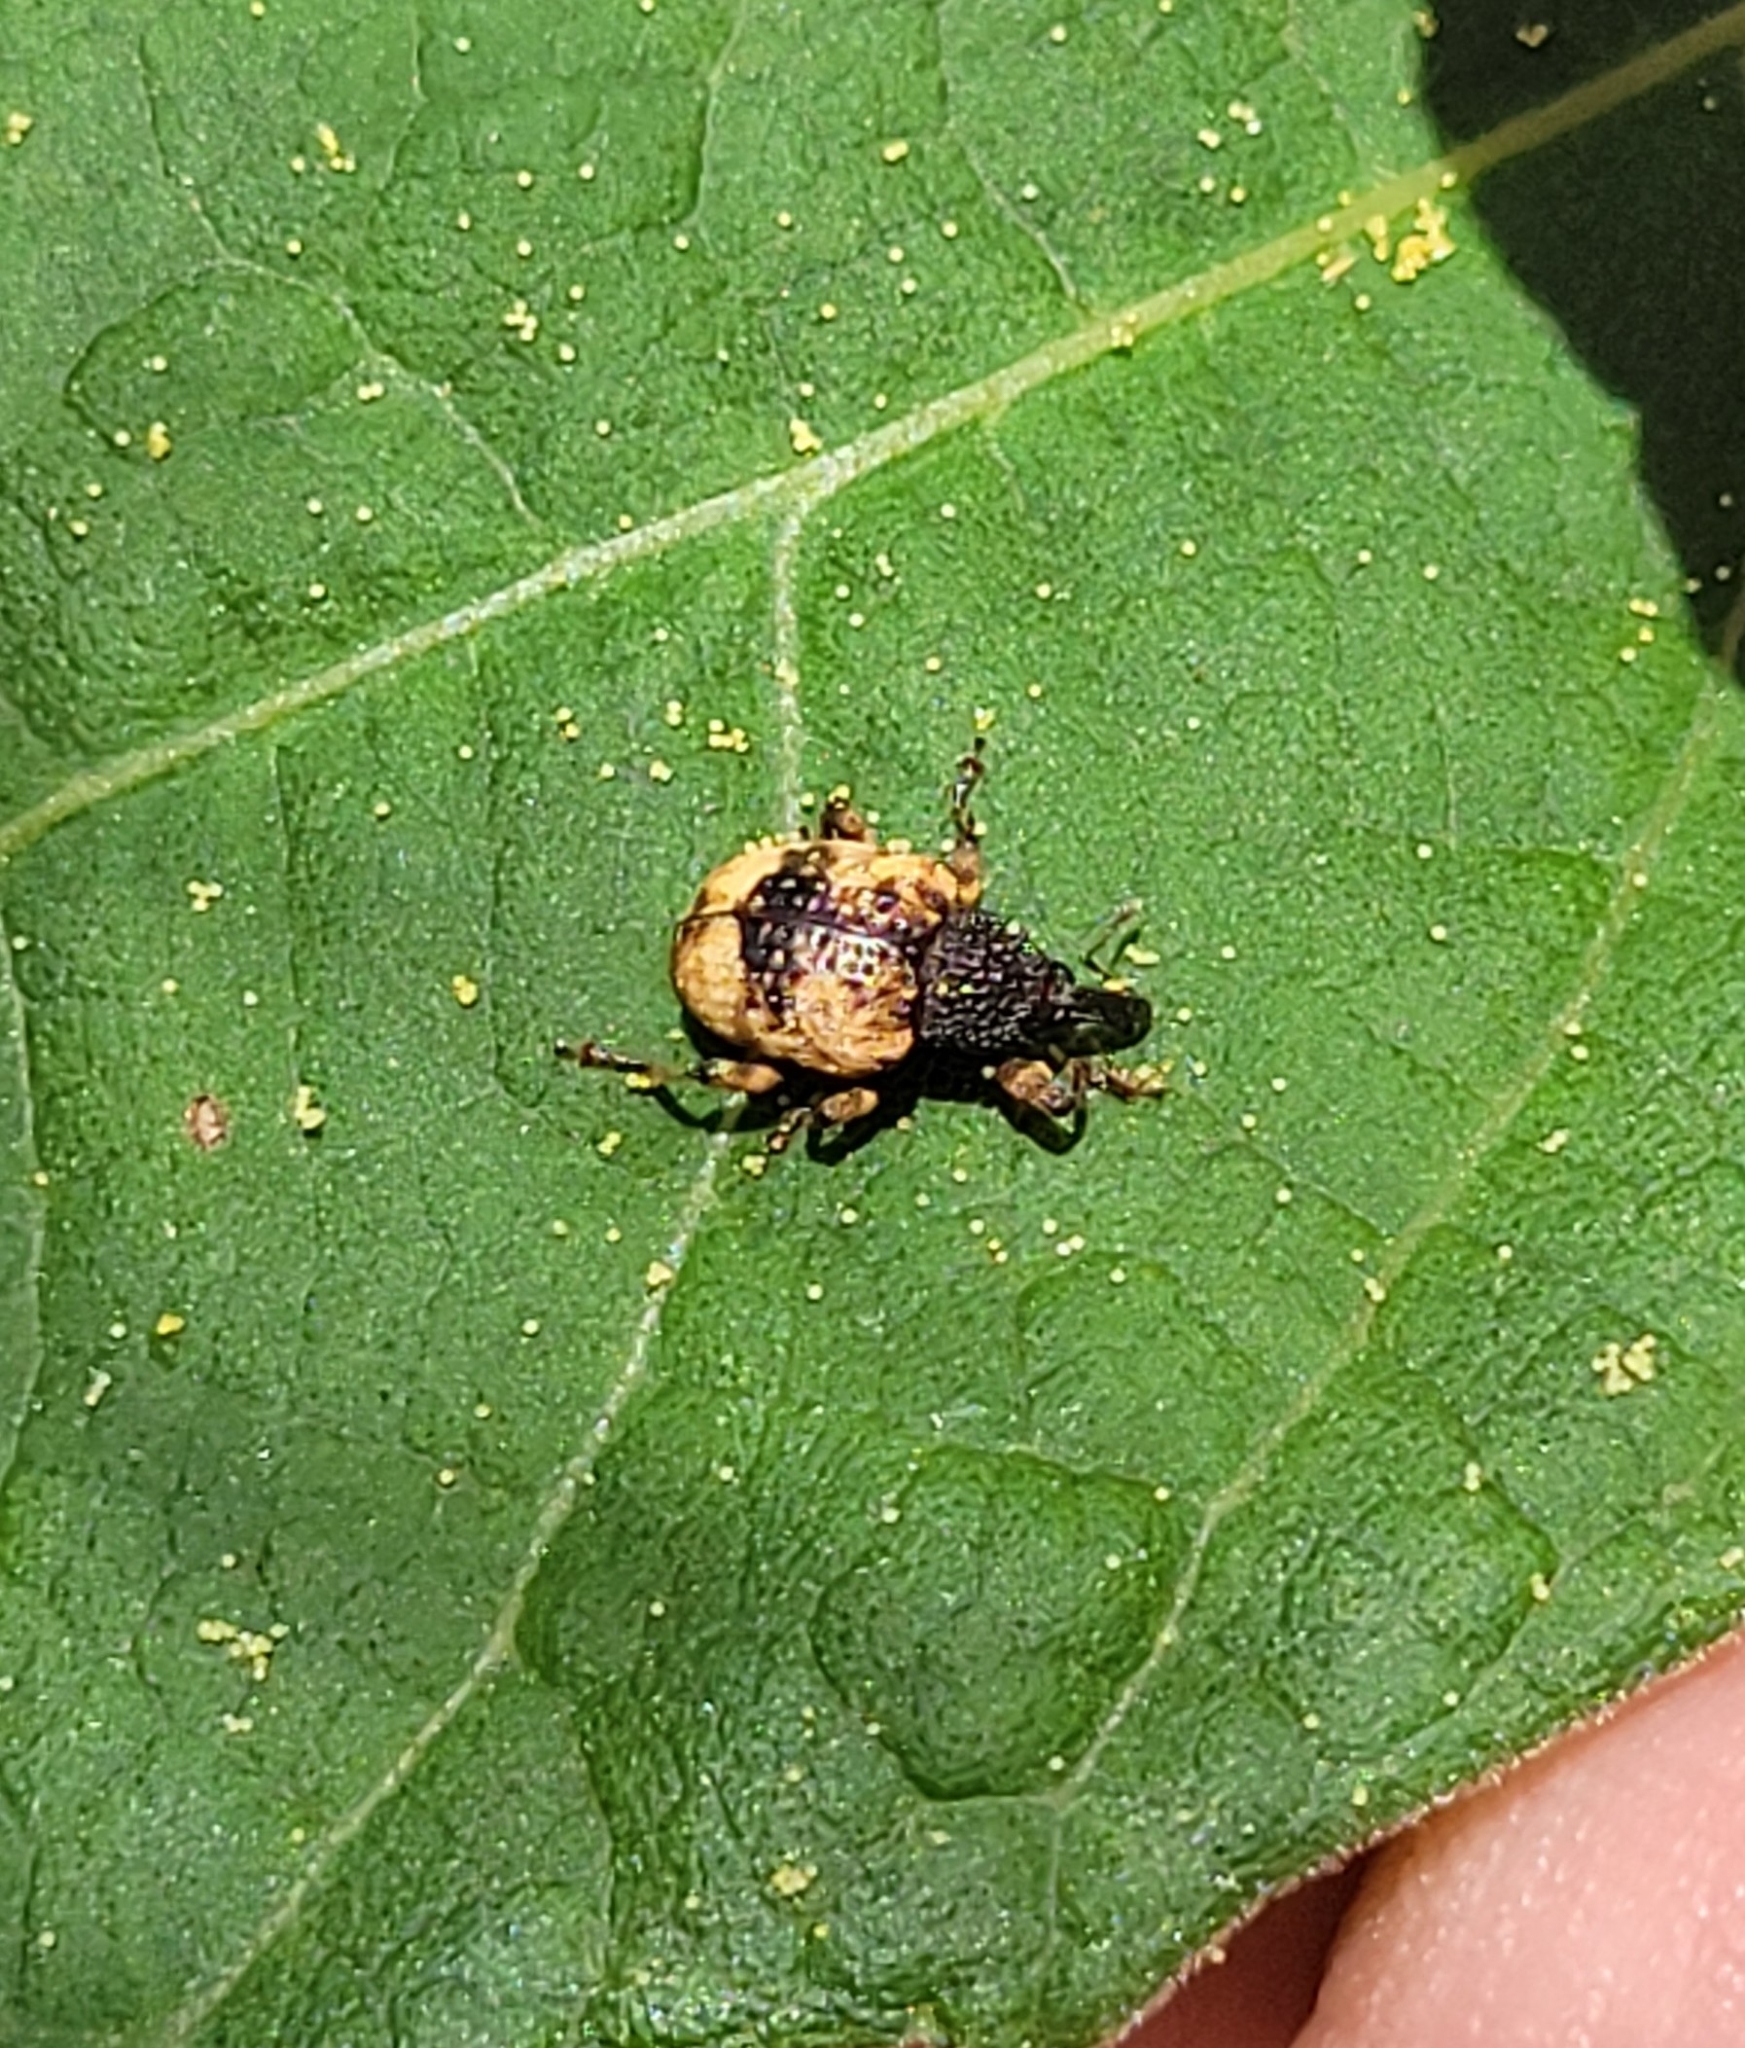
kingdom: Animalia
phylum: Arthropoda
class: Insecta
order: Coleoptera
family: Curculionidae
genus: Conotrachelus
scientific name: Conotrachelus fissunguis
